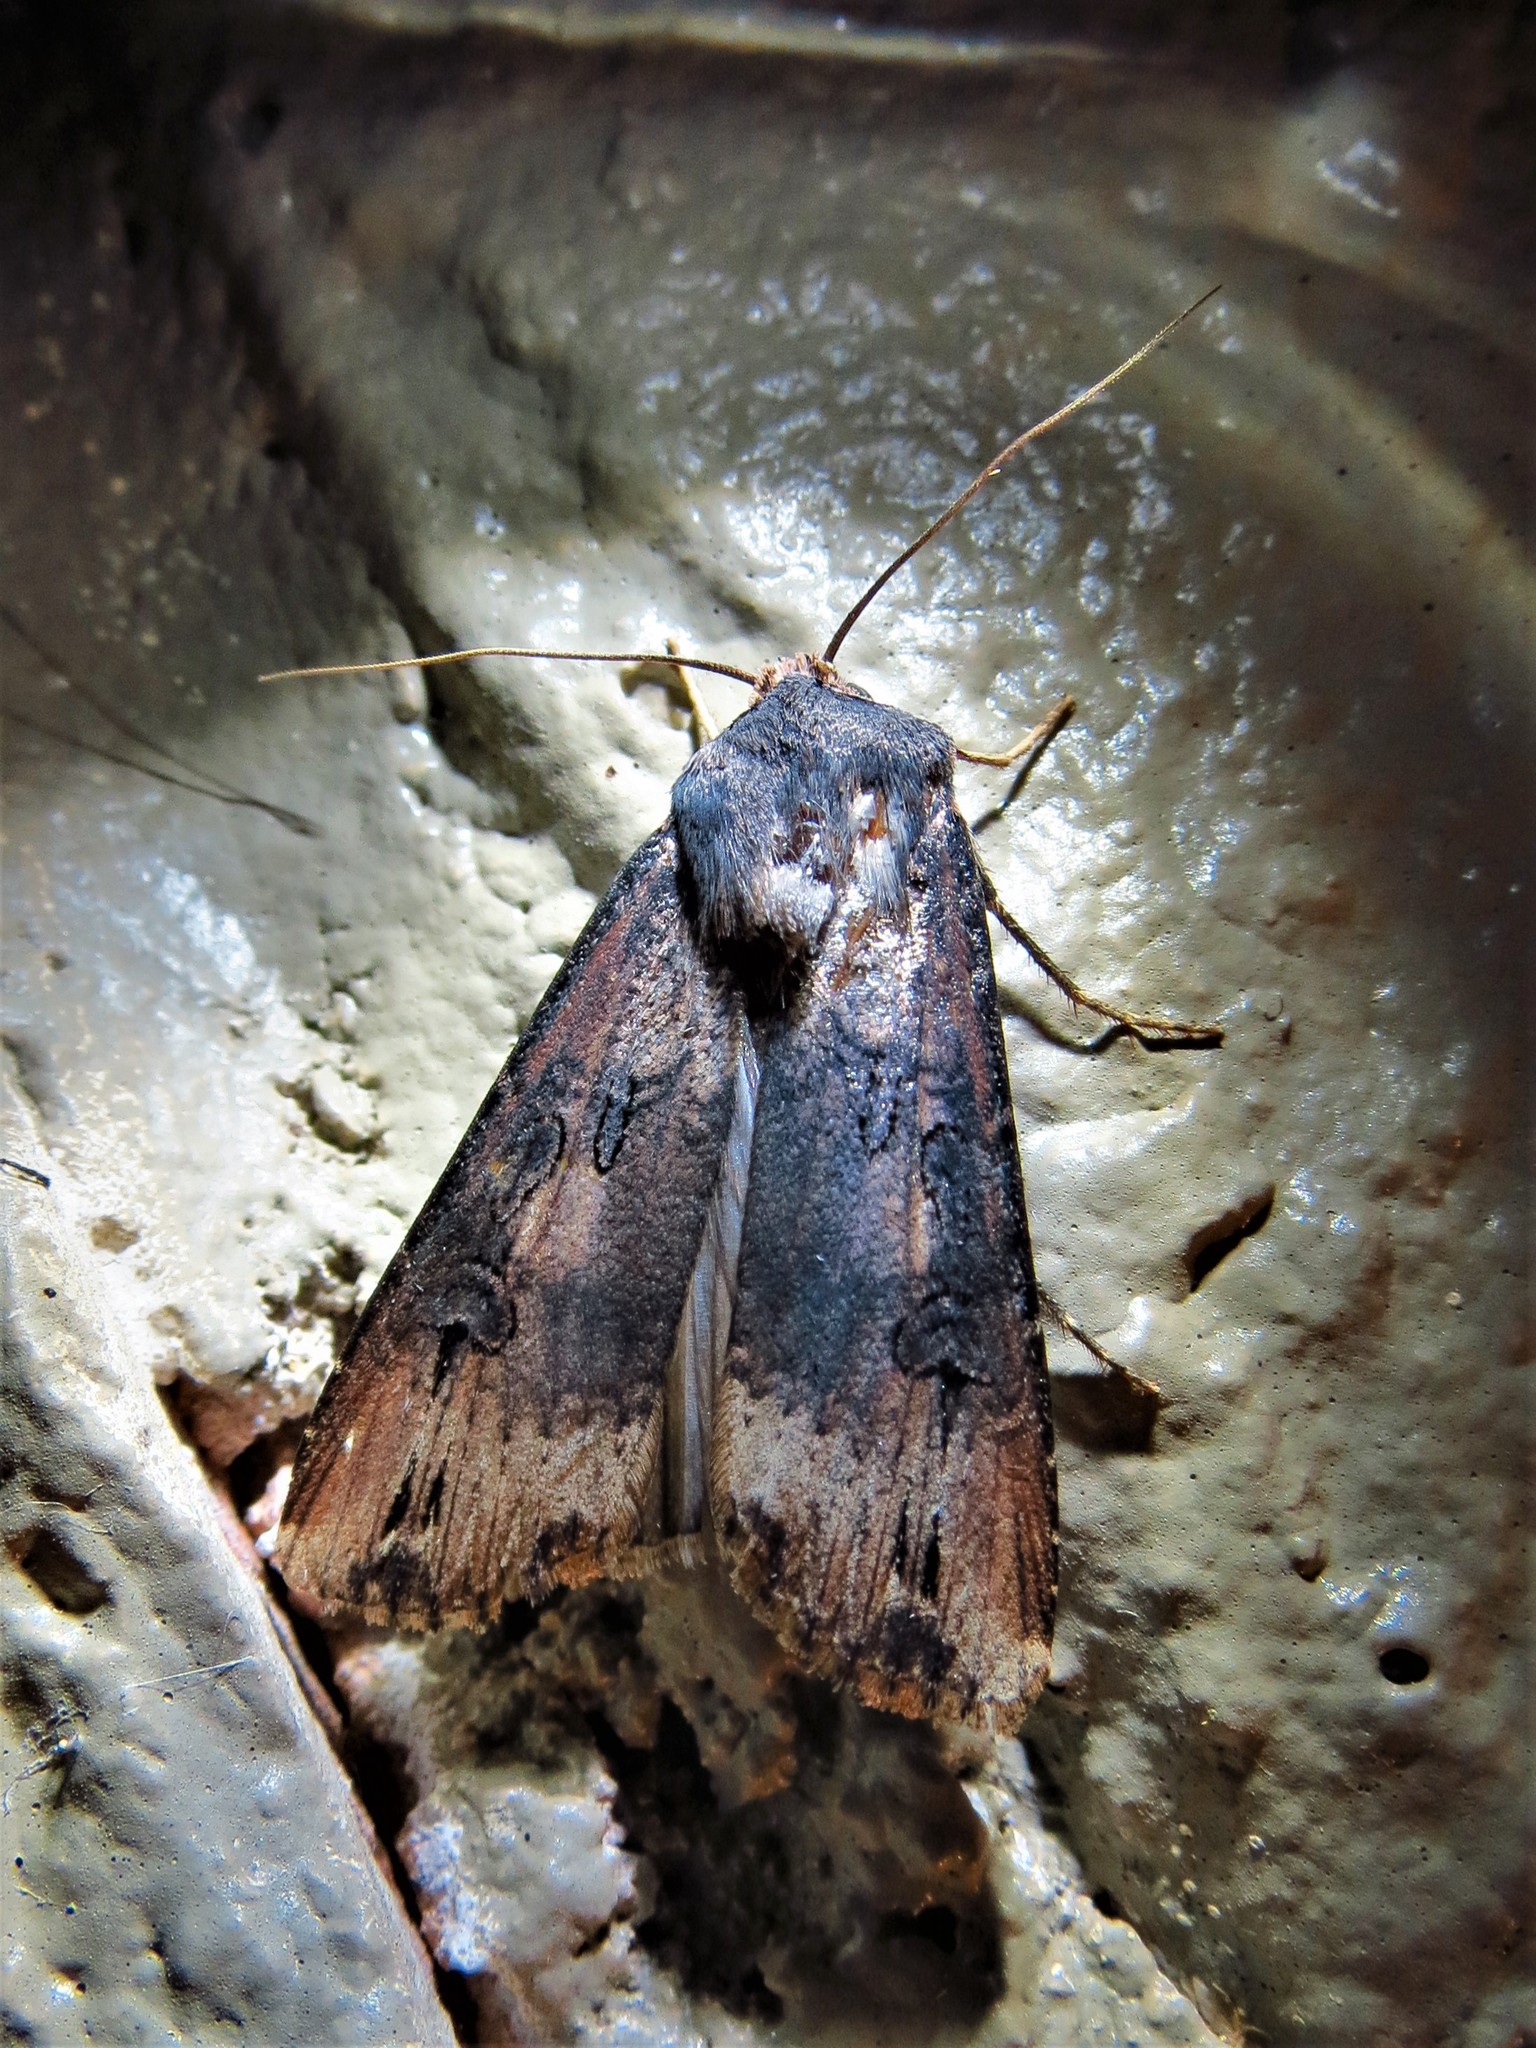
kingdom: Animalia
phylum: Arthropoda
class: Insecta
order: Lepidoptera
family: Noctuidae
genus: Agrotis
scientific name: Agrotis ipsilon
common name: Dark sword-grass
